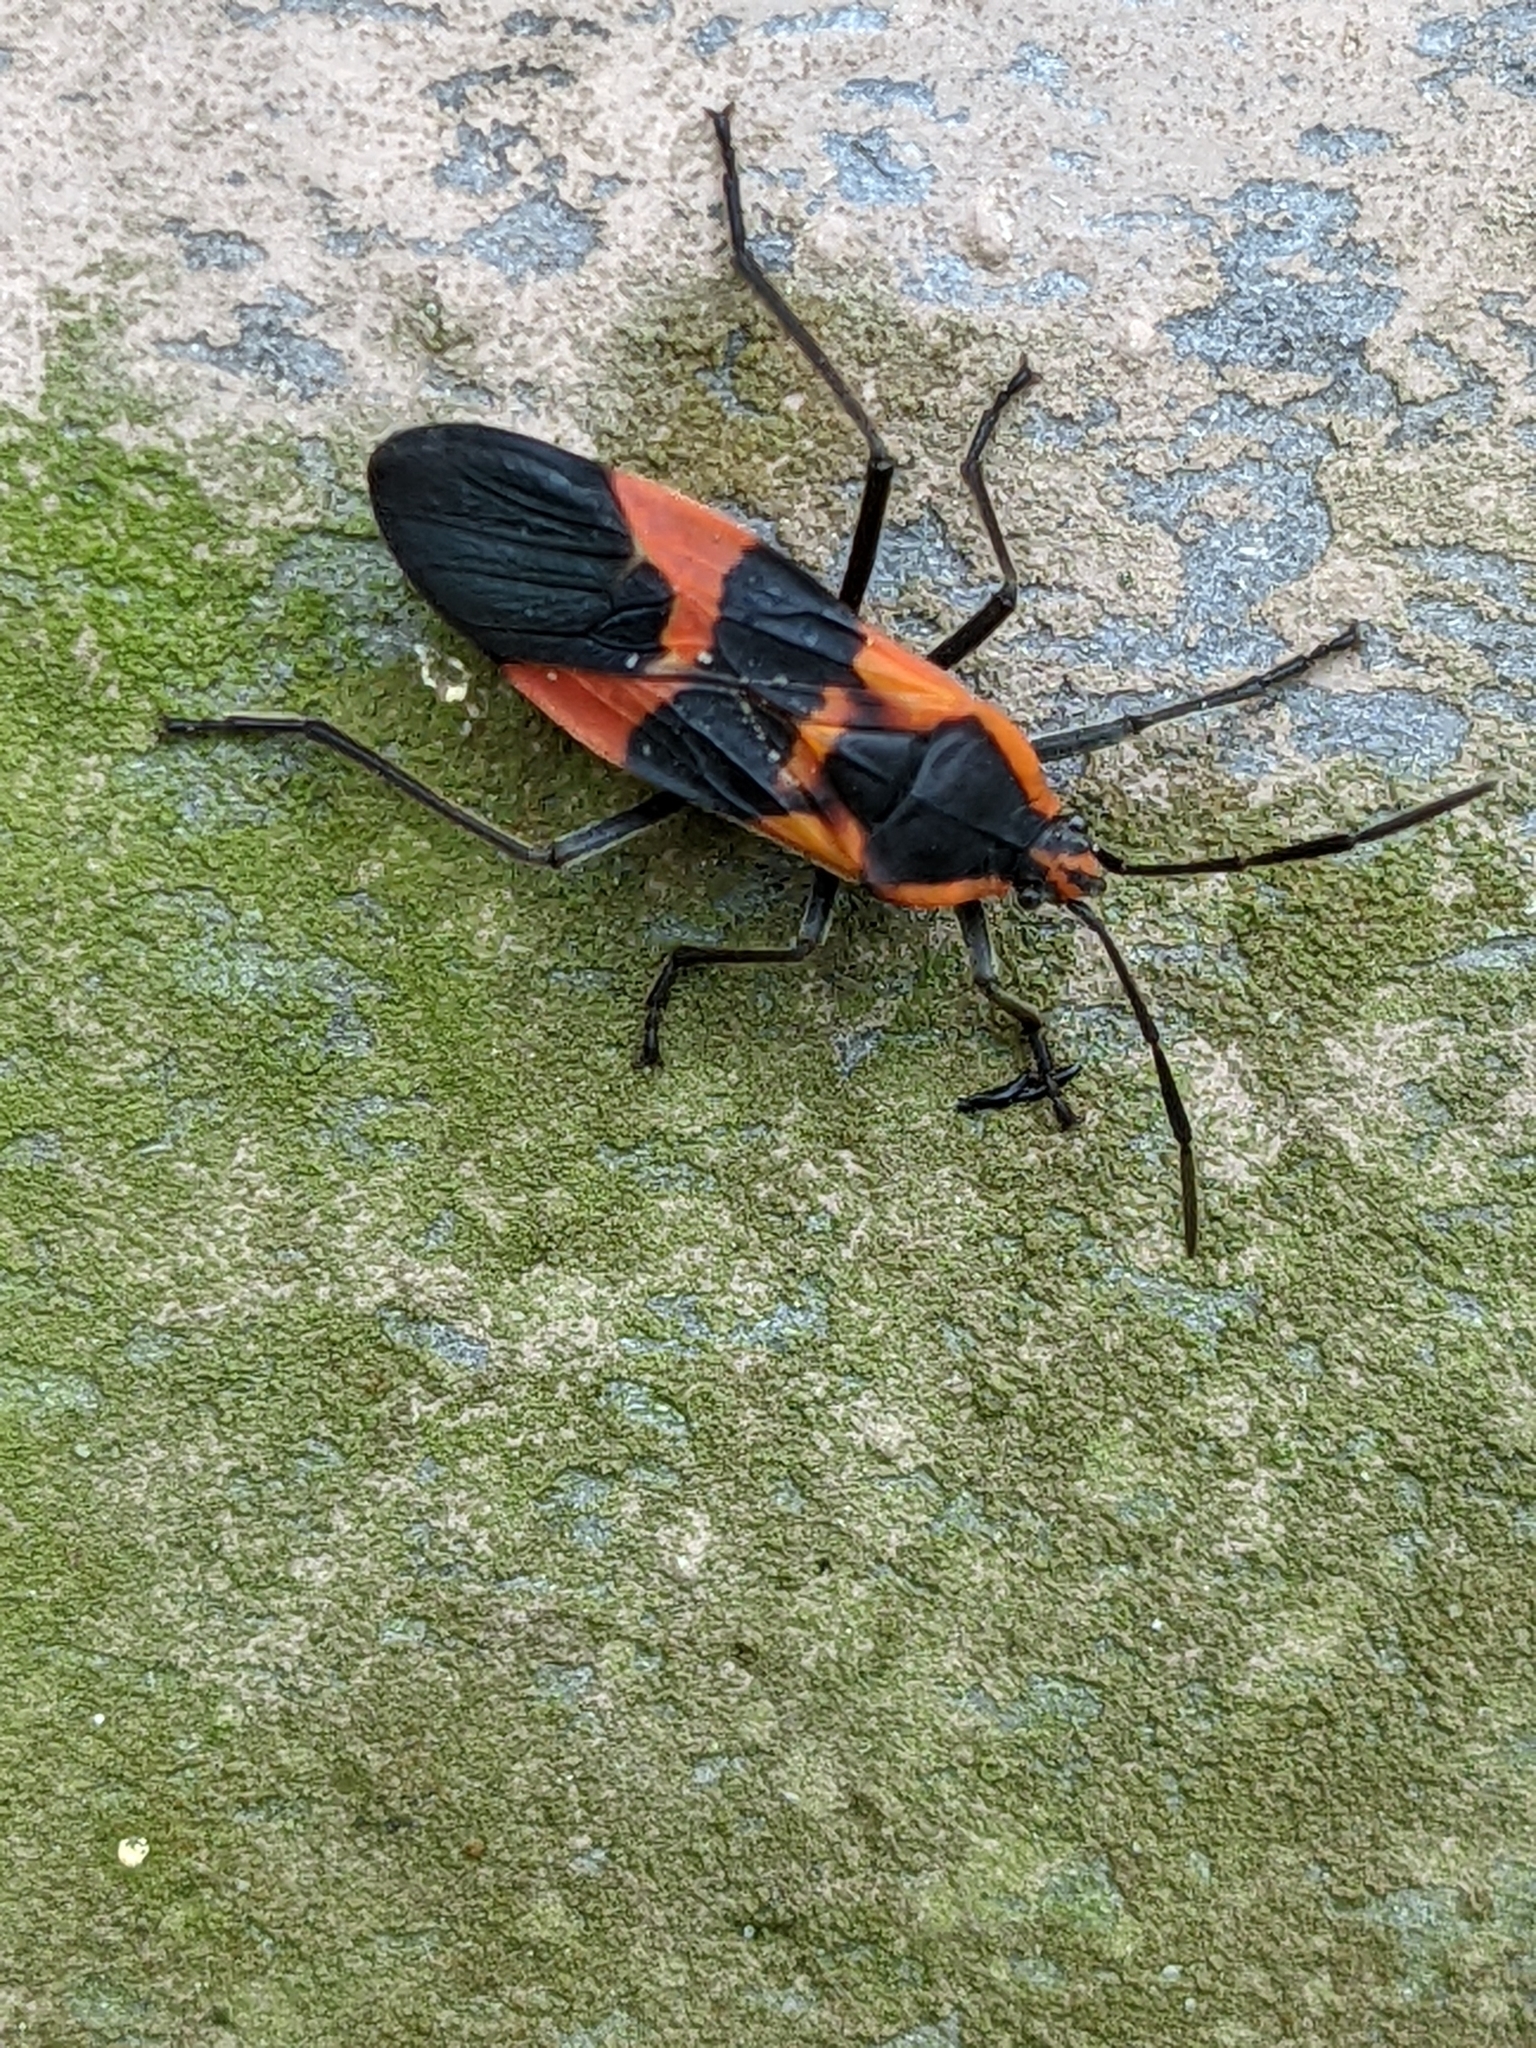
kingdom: Animalia
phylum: Arthropoda
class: Insecta
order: Hemiptera
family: Lygaeidae
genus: Oncopeltus
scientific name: Oncopeltus fasciatus
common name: Large milkweed bug
